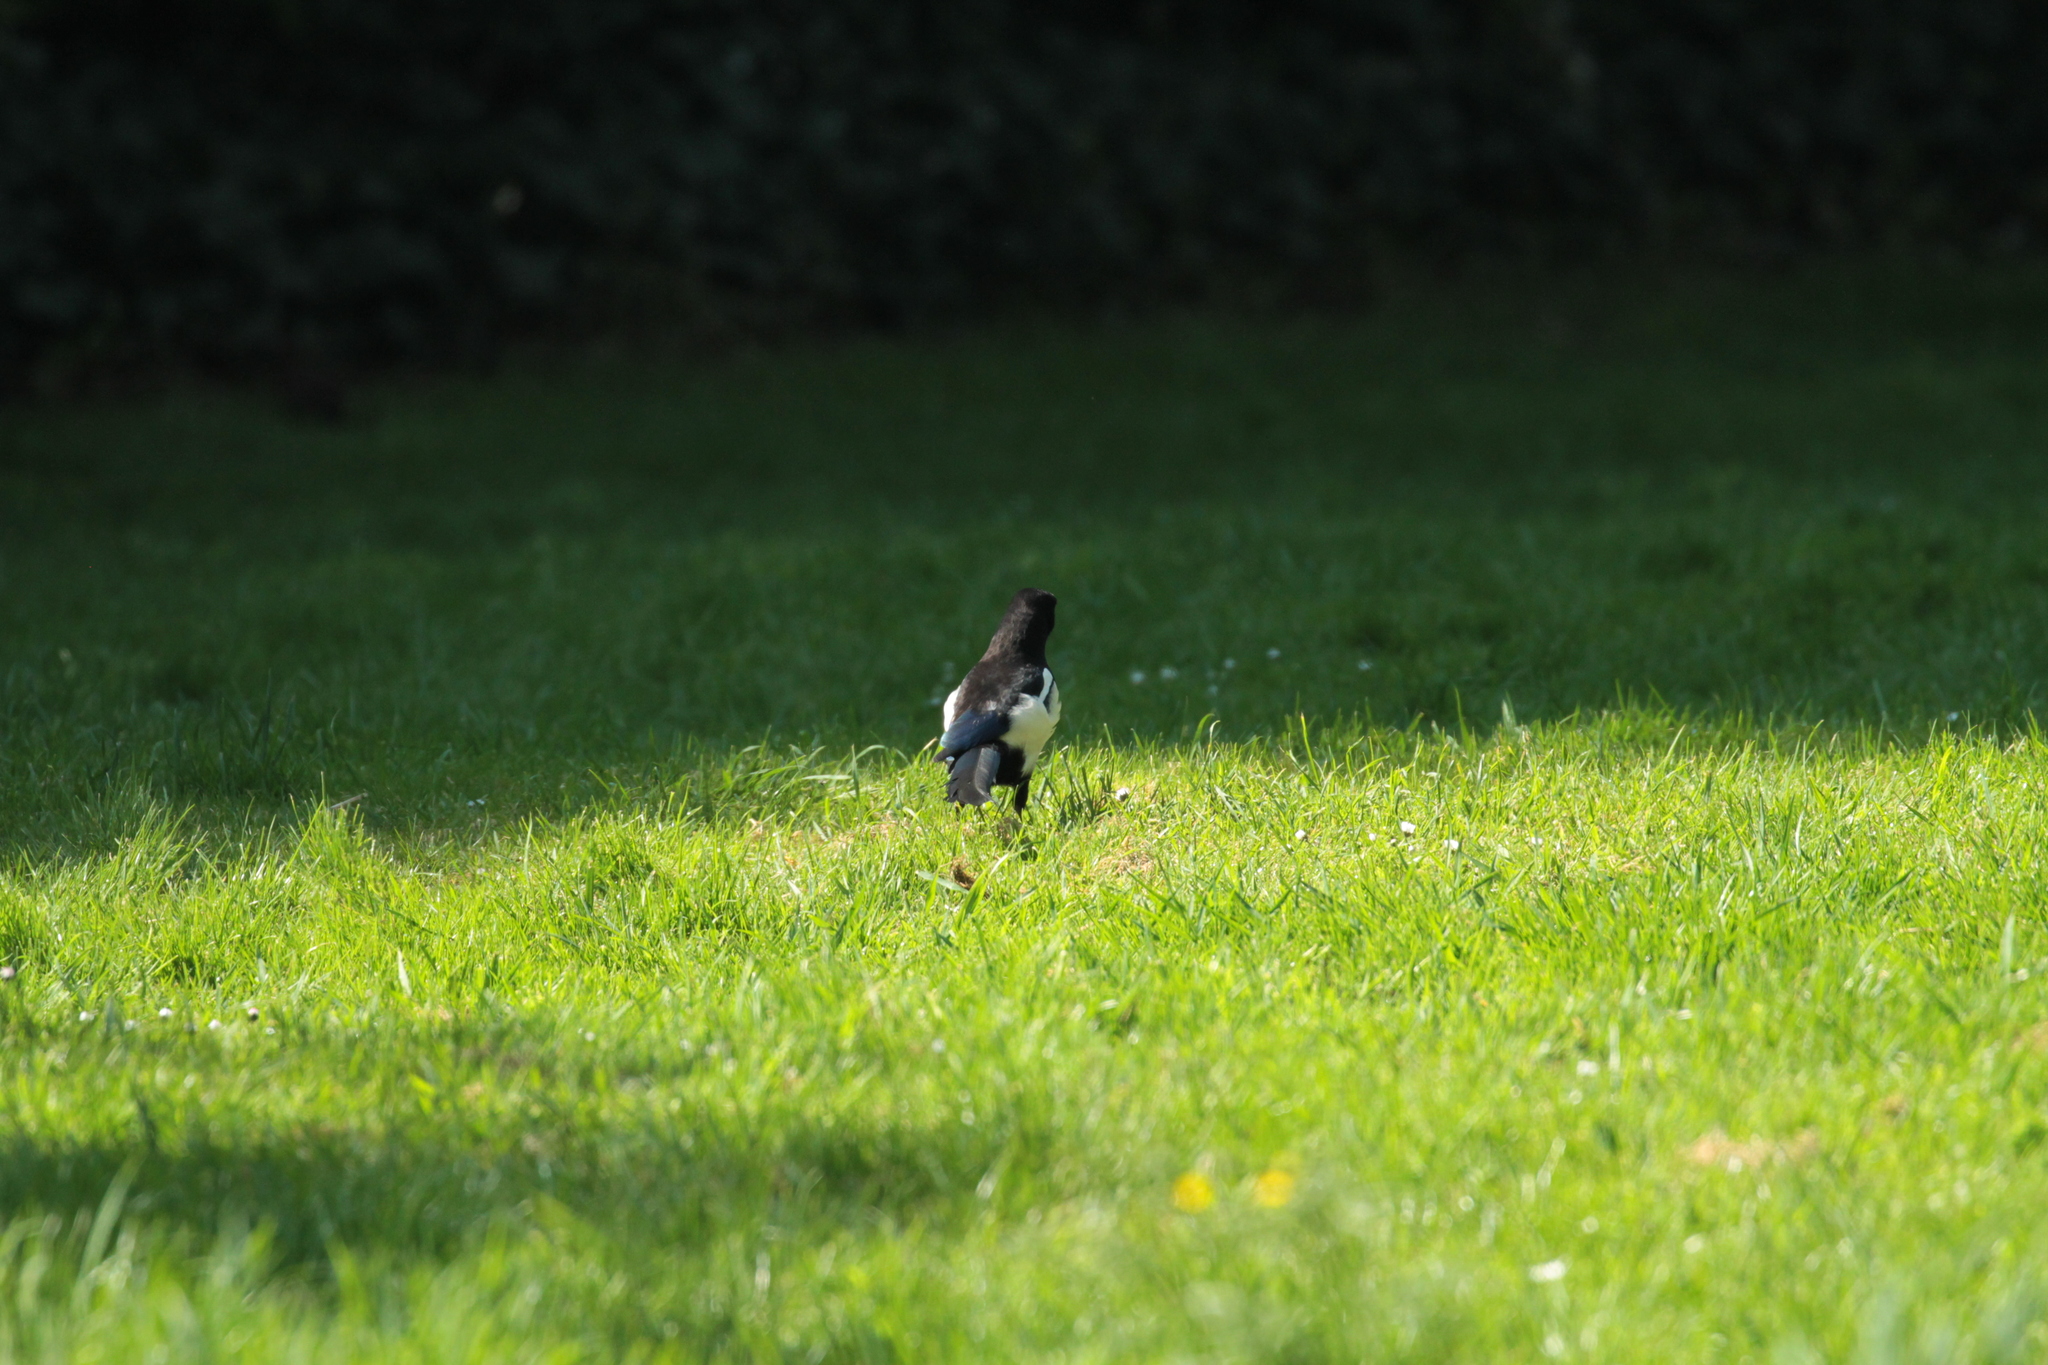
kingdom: Animalia
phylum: Chordata
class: Aves
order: Passeriformes
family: Corvidae
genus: Pica
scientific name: Pica pica
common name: Eurasian magpie
